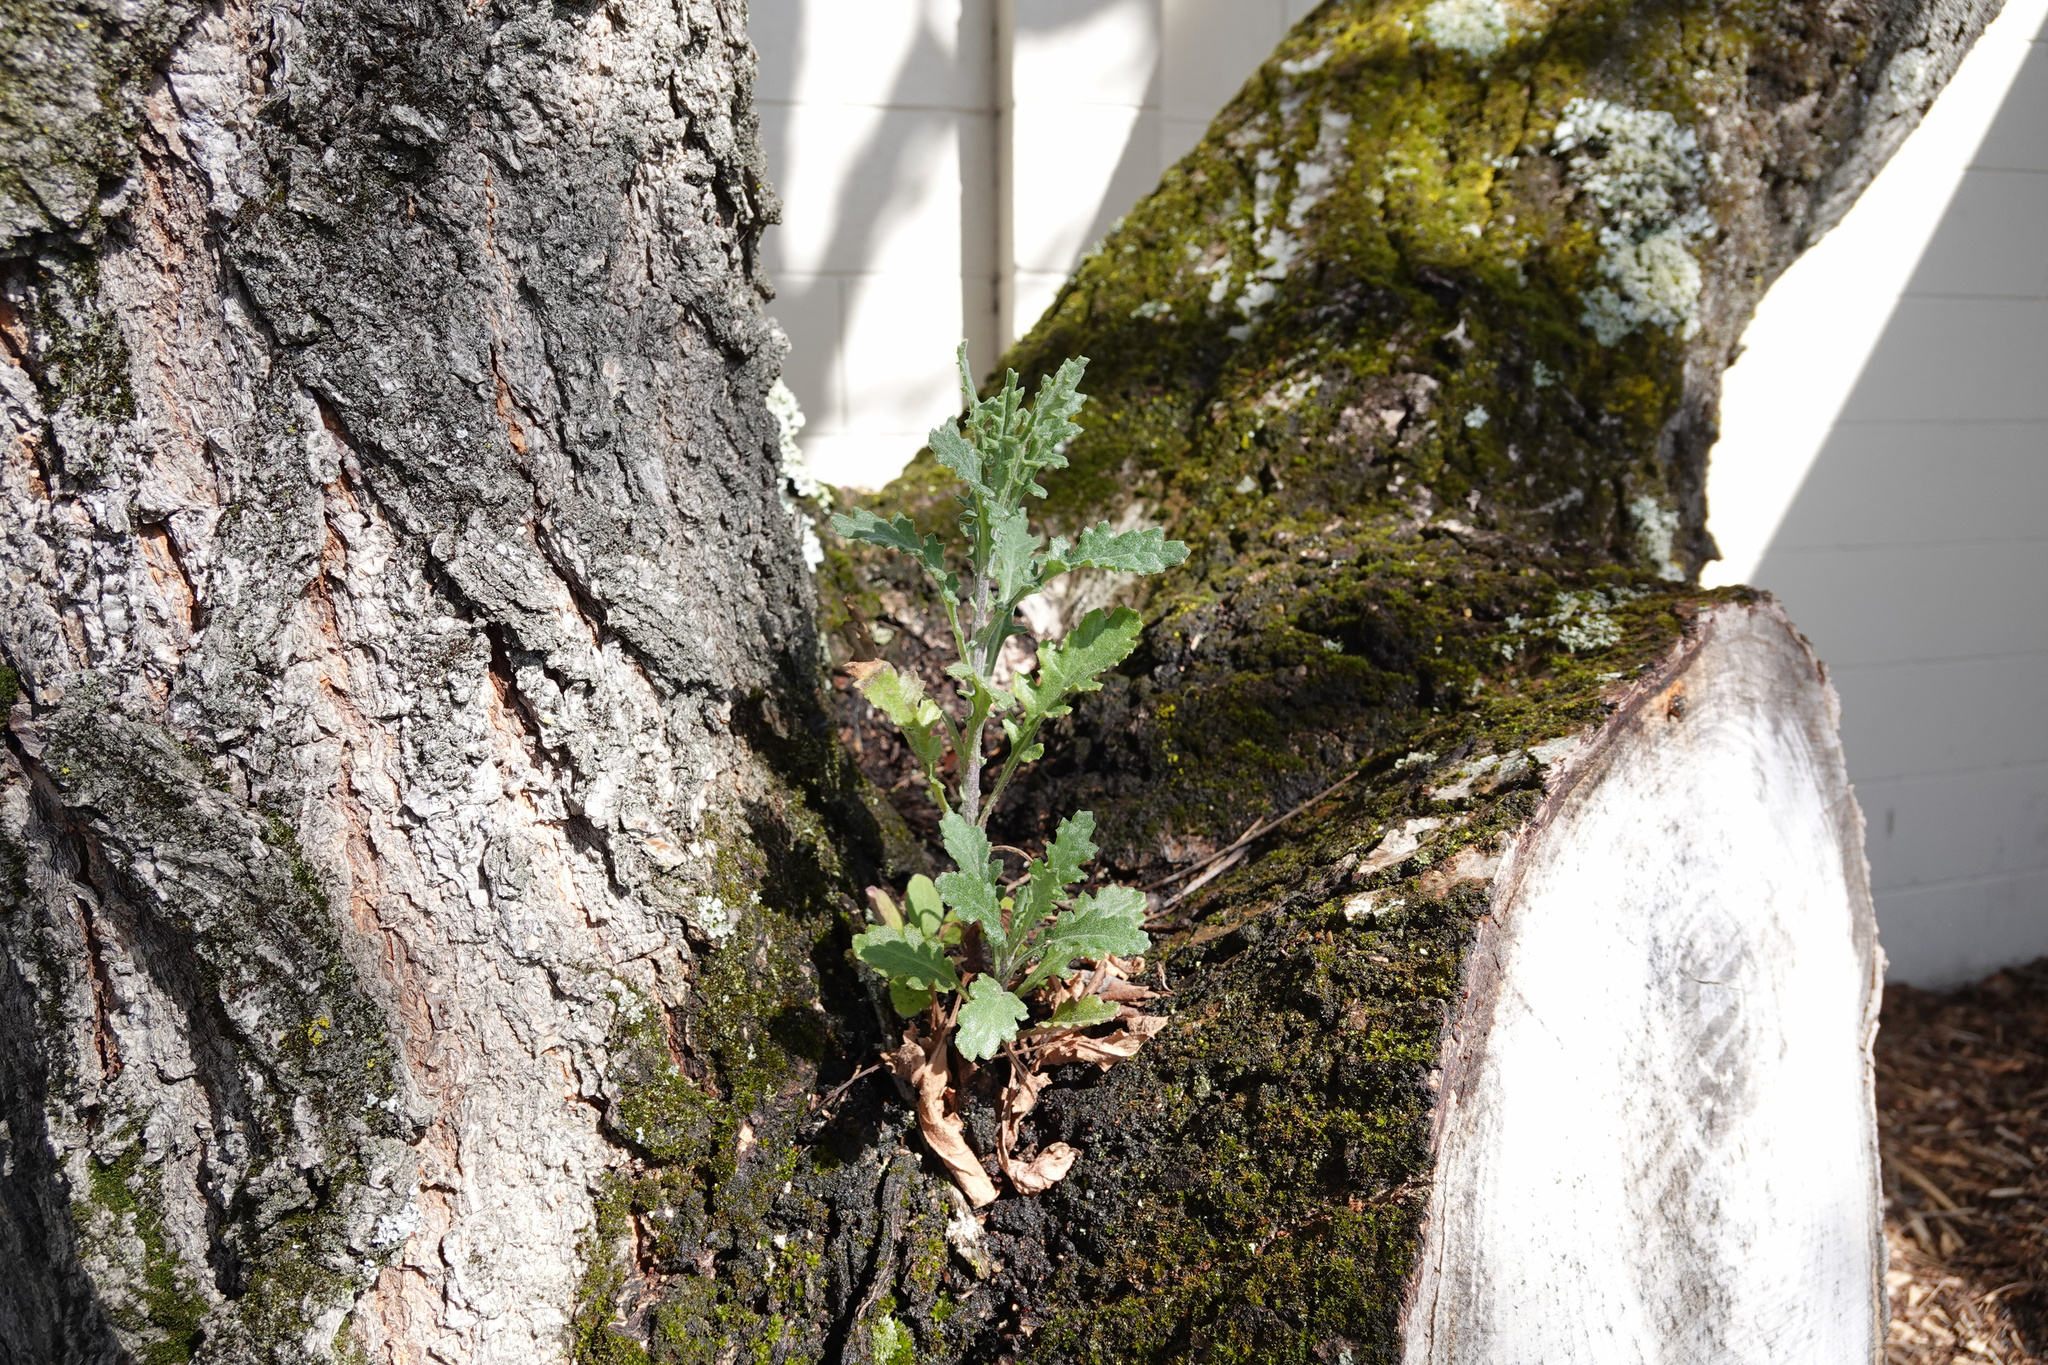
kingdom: Plantae
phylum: Tracheophyta
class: Magnoliopsida
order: Asterales
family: Asteraceae
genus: Senecio
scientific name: Senecio glomeratus
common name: Cutleaf burnweed
